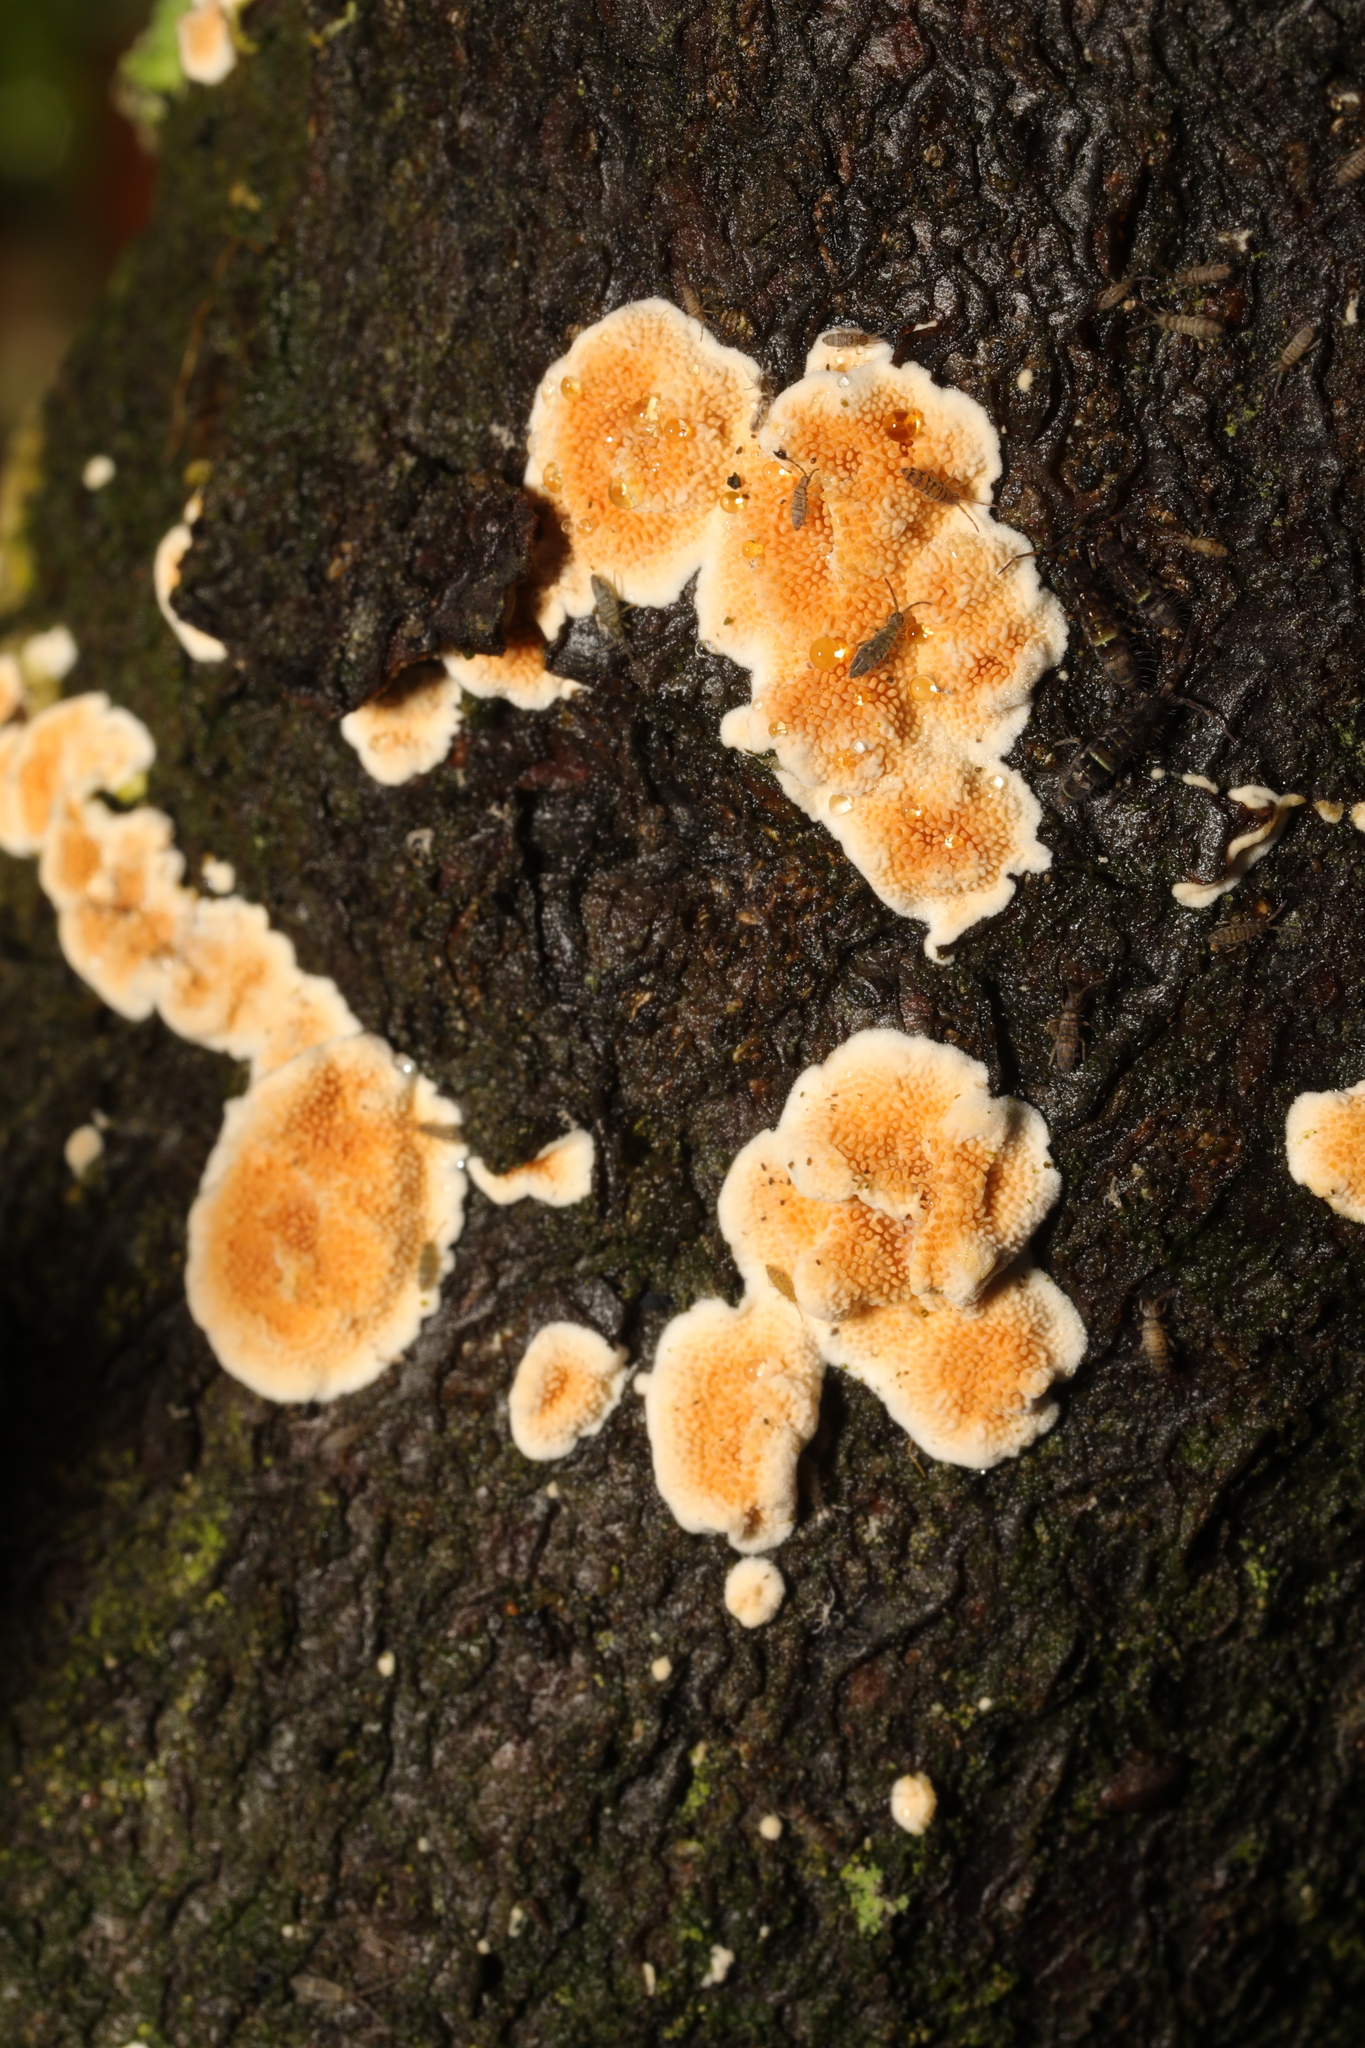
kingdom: Fungi
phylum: Basidiomycota
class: Agaricomycetes
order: Polyporales
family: Steccherinaceae
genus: Steccherinum
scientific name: Steccherinum ochraceum
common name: Ochre spreading tooth
